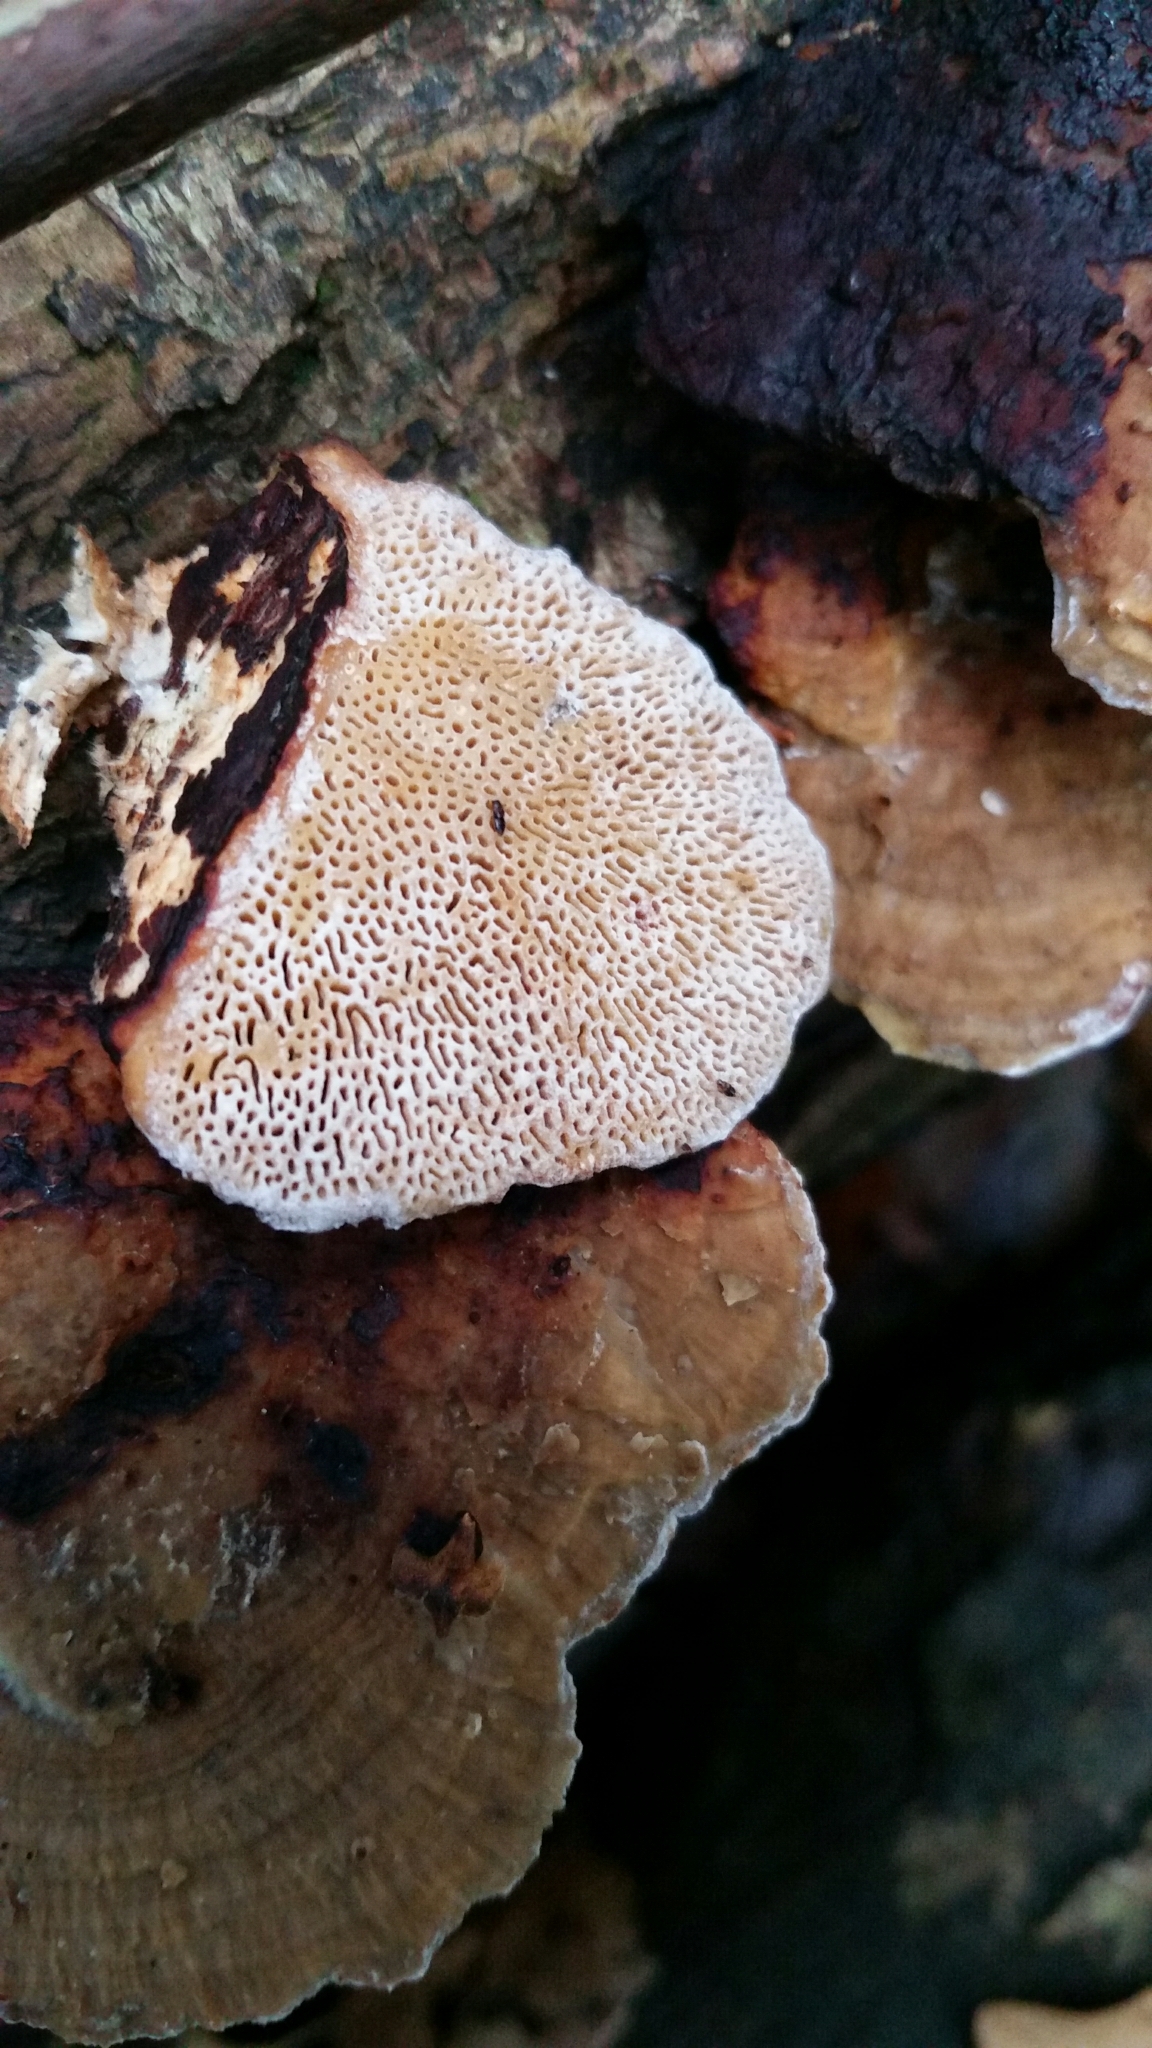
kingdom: Fungi
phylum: Basidiomycota
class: Agaricomycetes
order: Polyporales
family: Polyporaceae
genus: Daedaleopsis
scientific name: Daedaleopsis confragosa
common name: Blushing bracket
